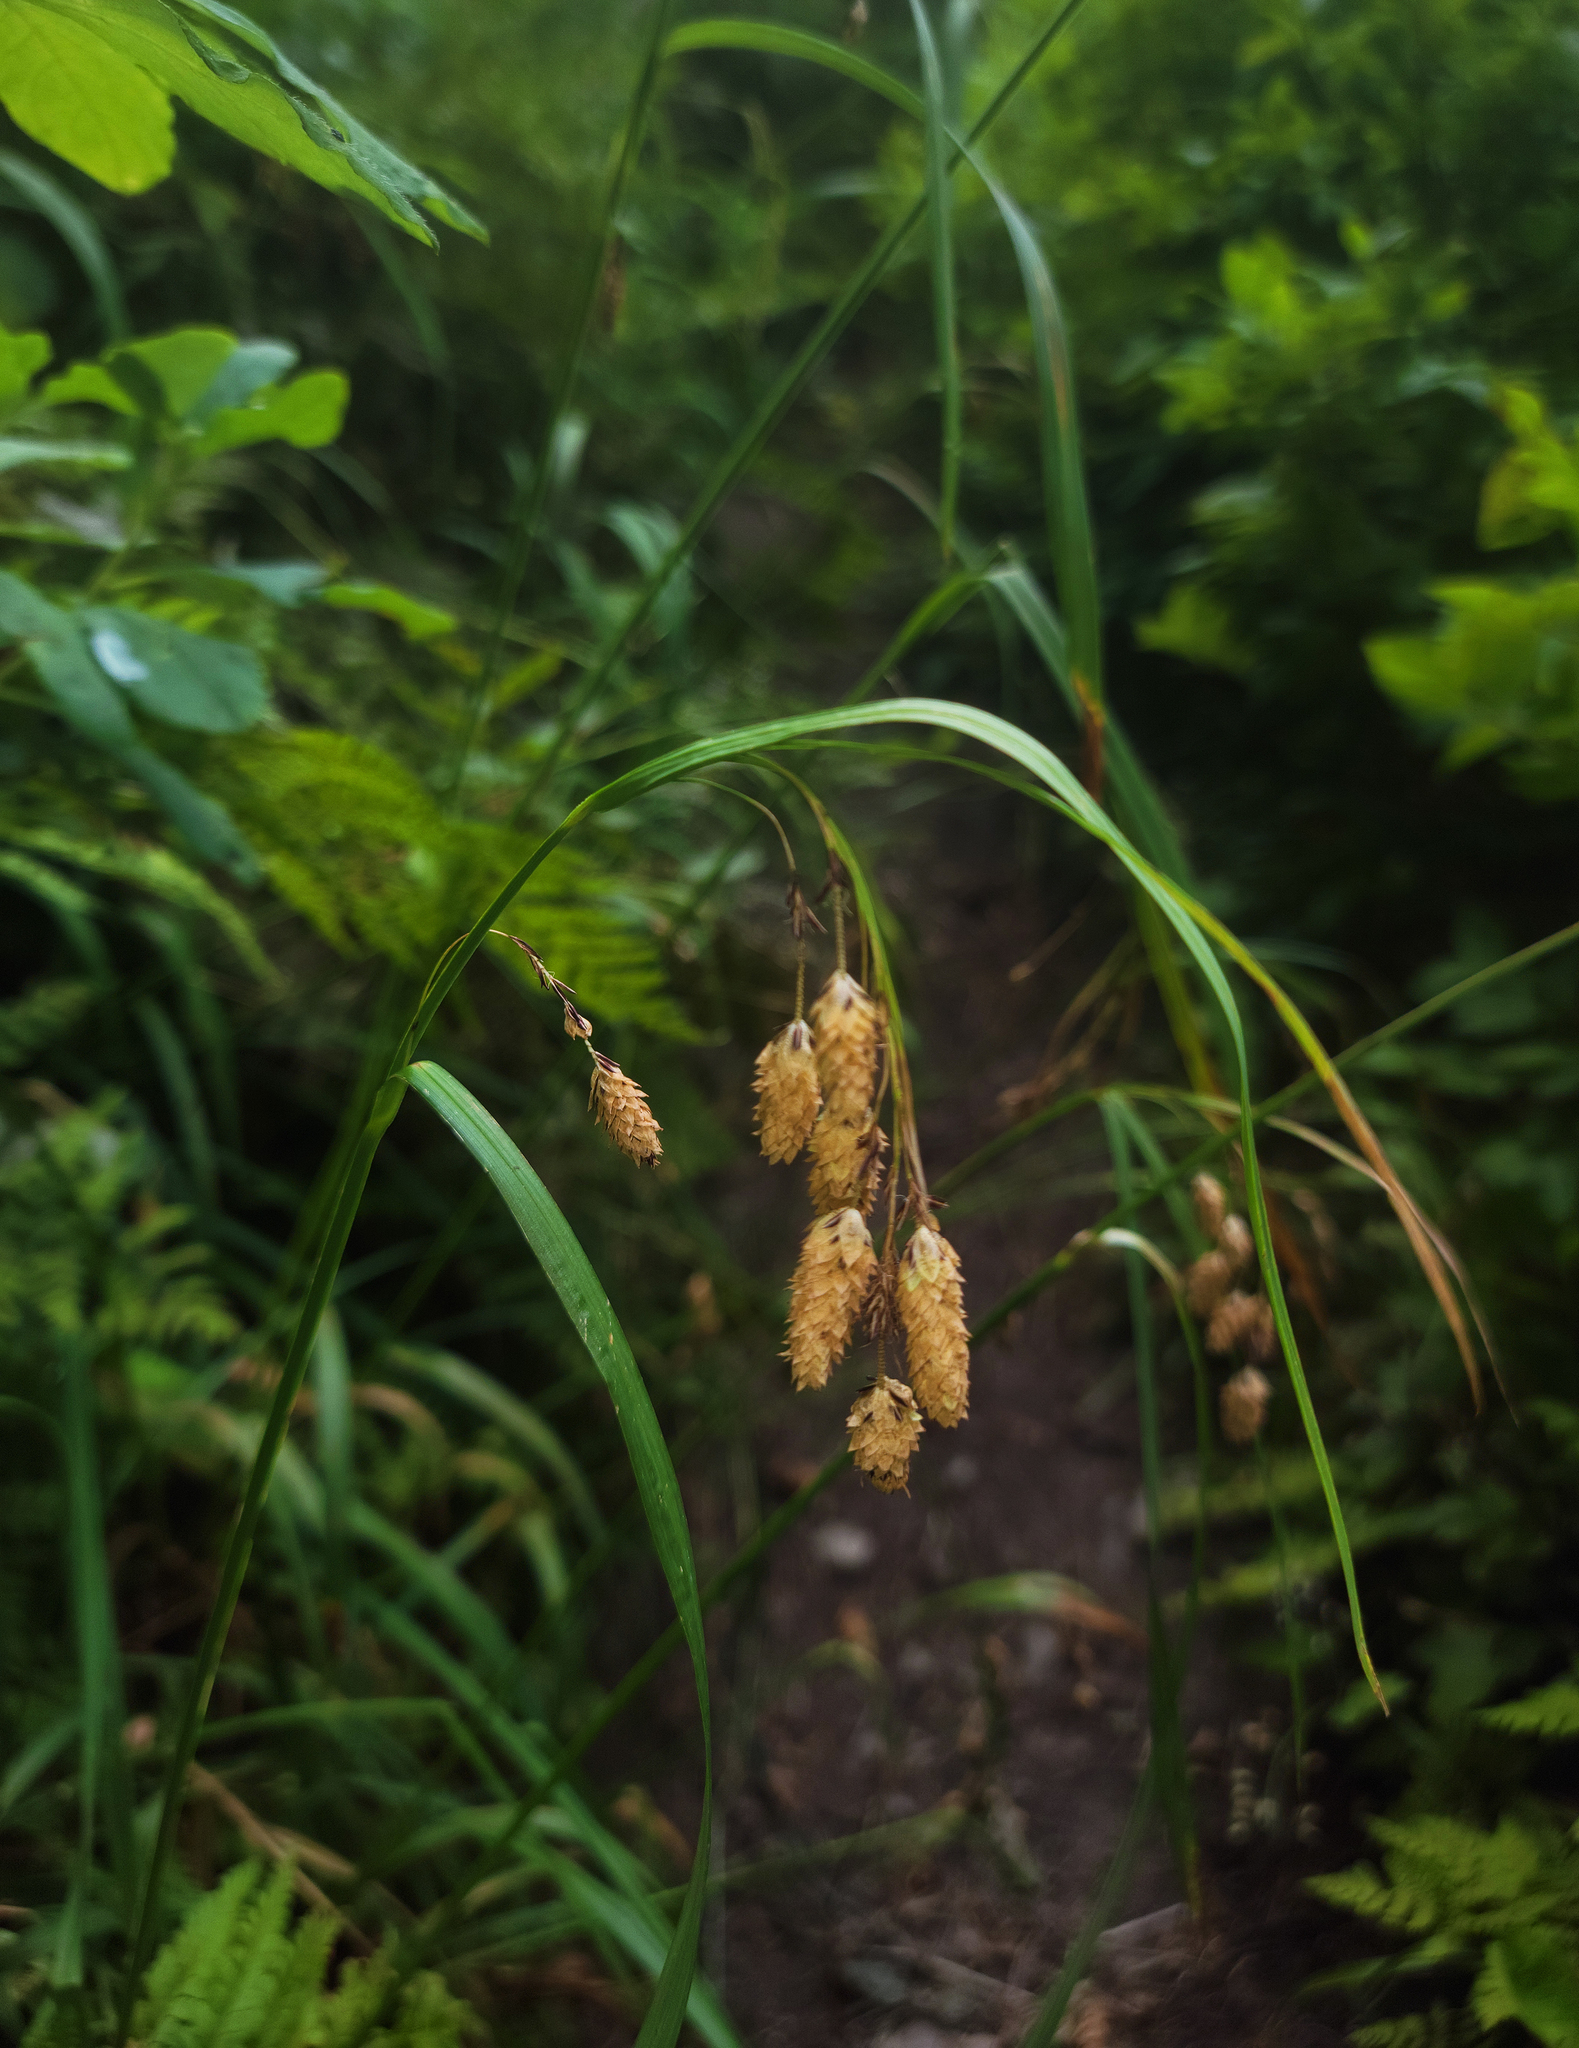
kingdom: Plantae
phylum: Tracheophyta
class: Liliopsida
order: Poales
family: Cyperaceae
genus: Carex
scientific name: Carex mertensii
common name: Mertens' sedge
